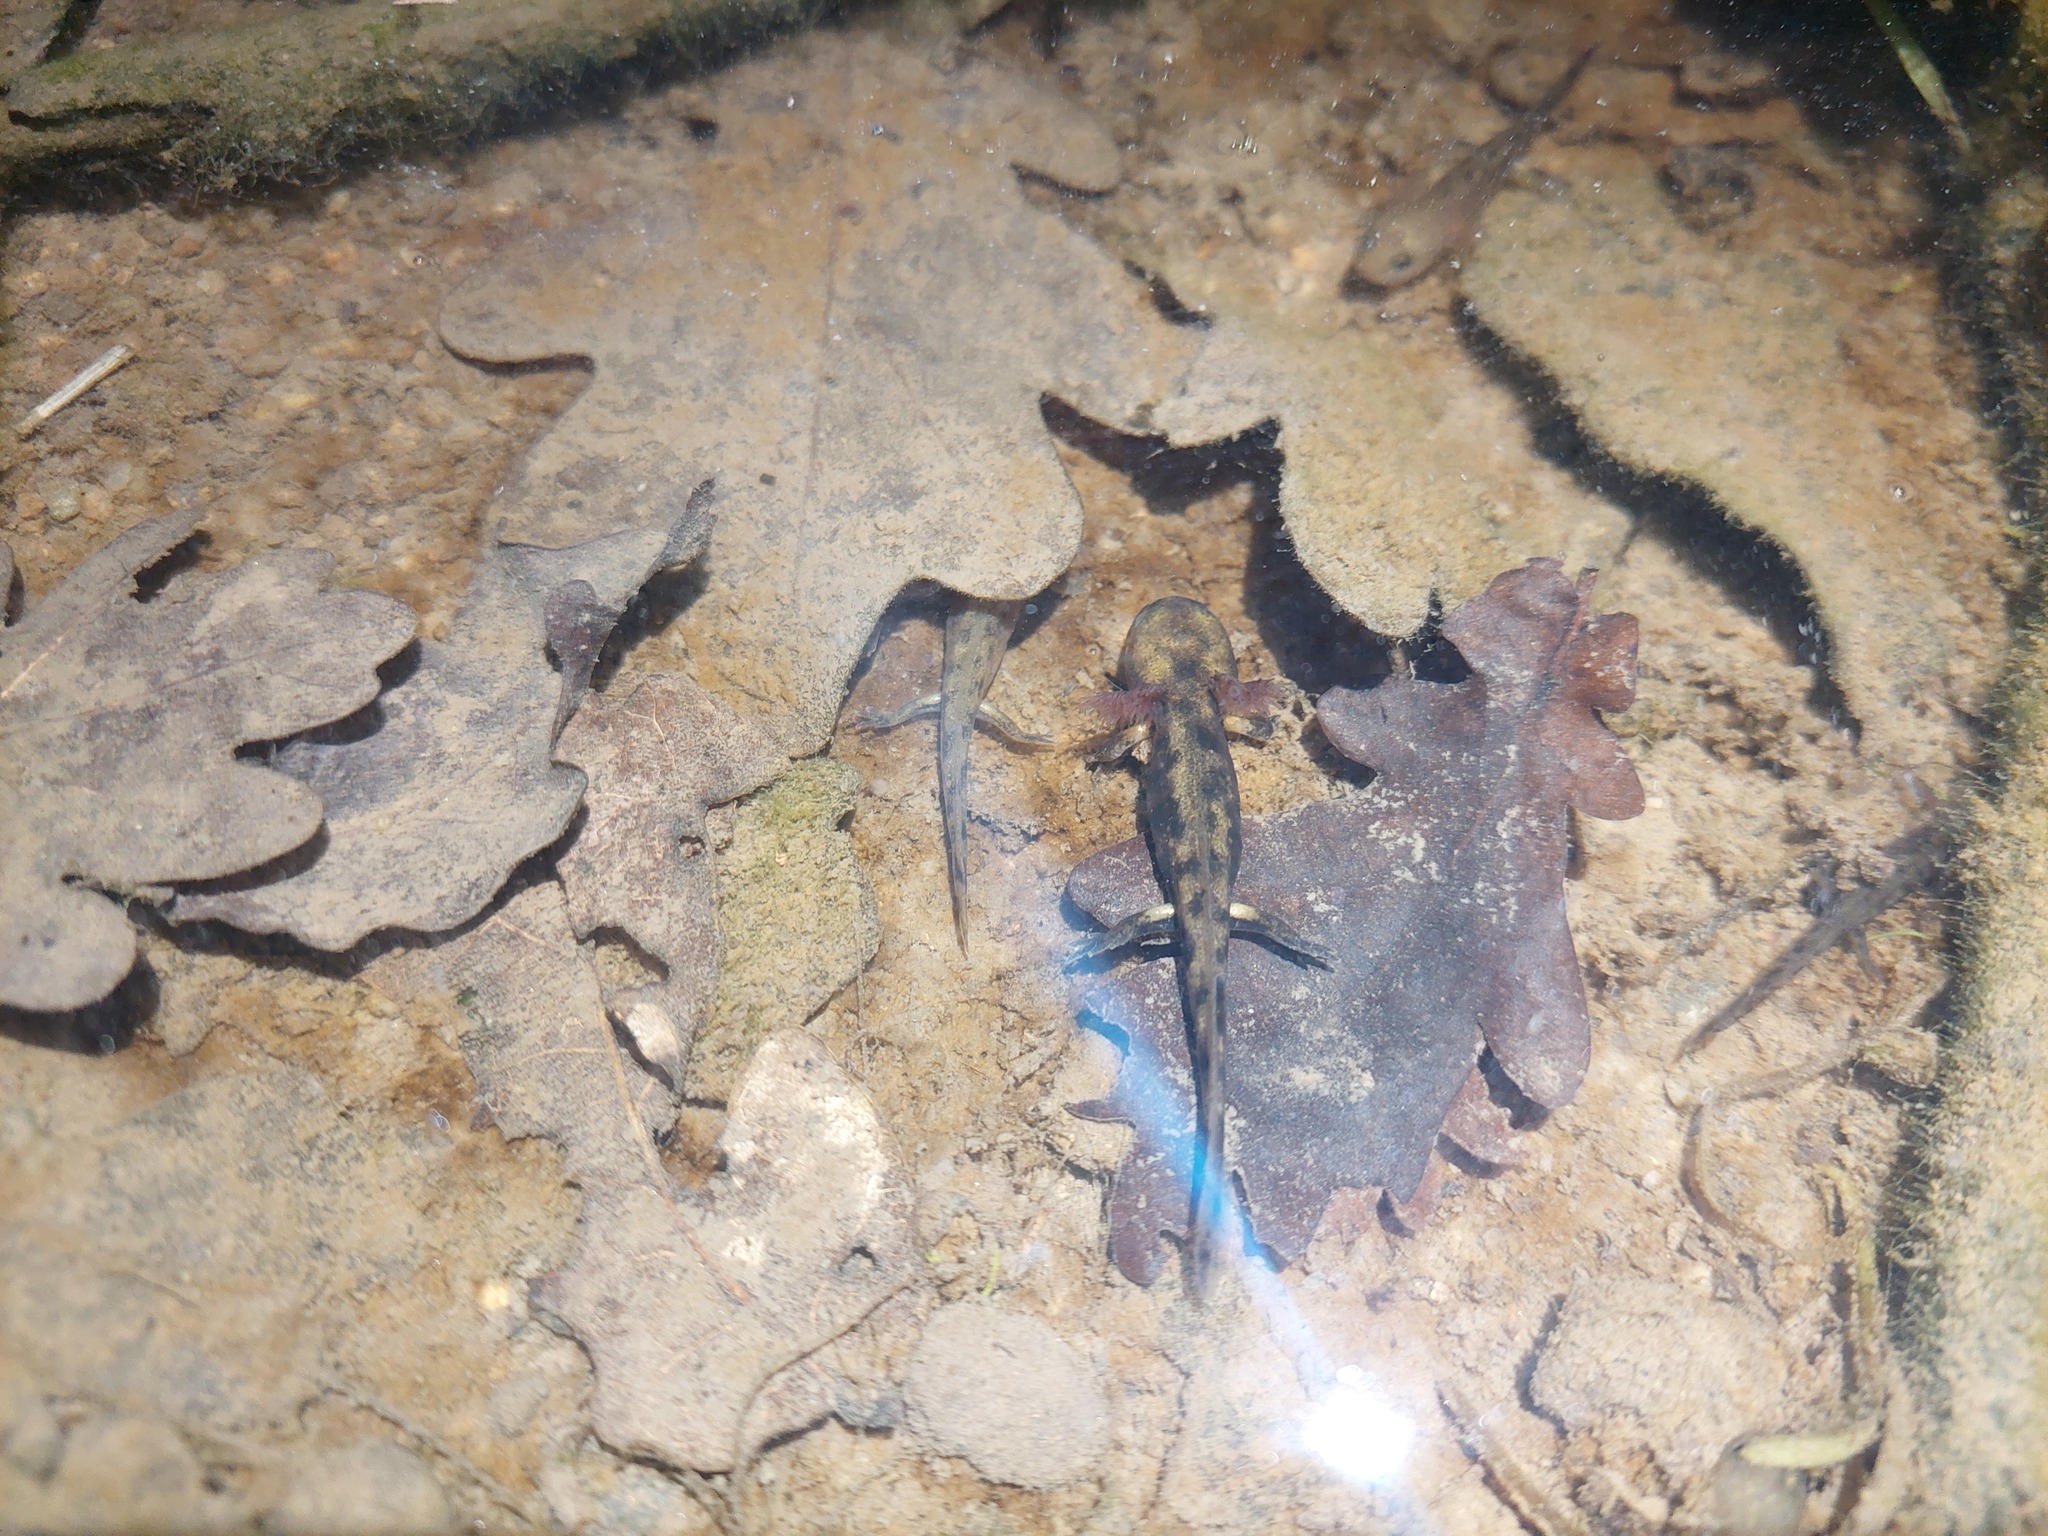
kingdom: Animalia
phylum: Chordata
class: Amphibia
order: Caudata
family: Salamandridae
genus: Salamandra
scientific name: Salamandra salamandra
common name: Fire salamander
